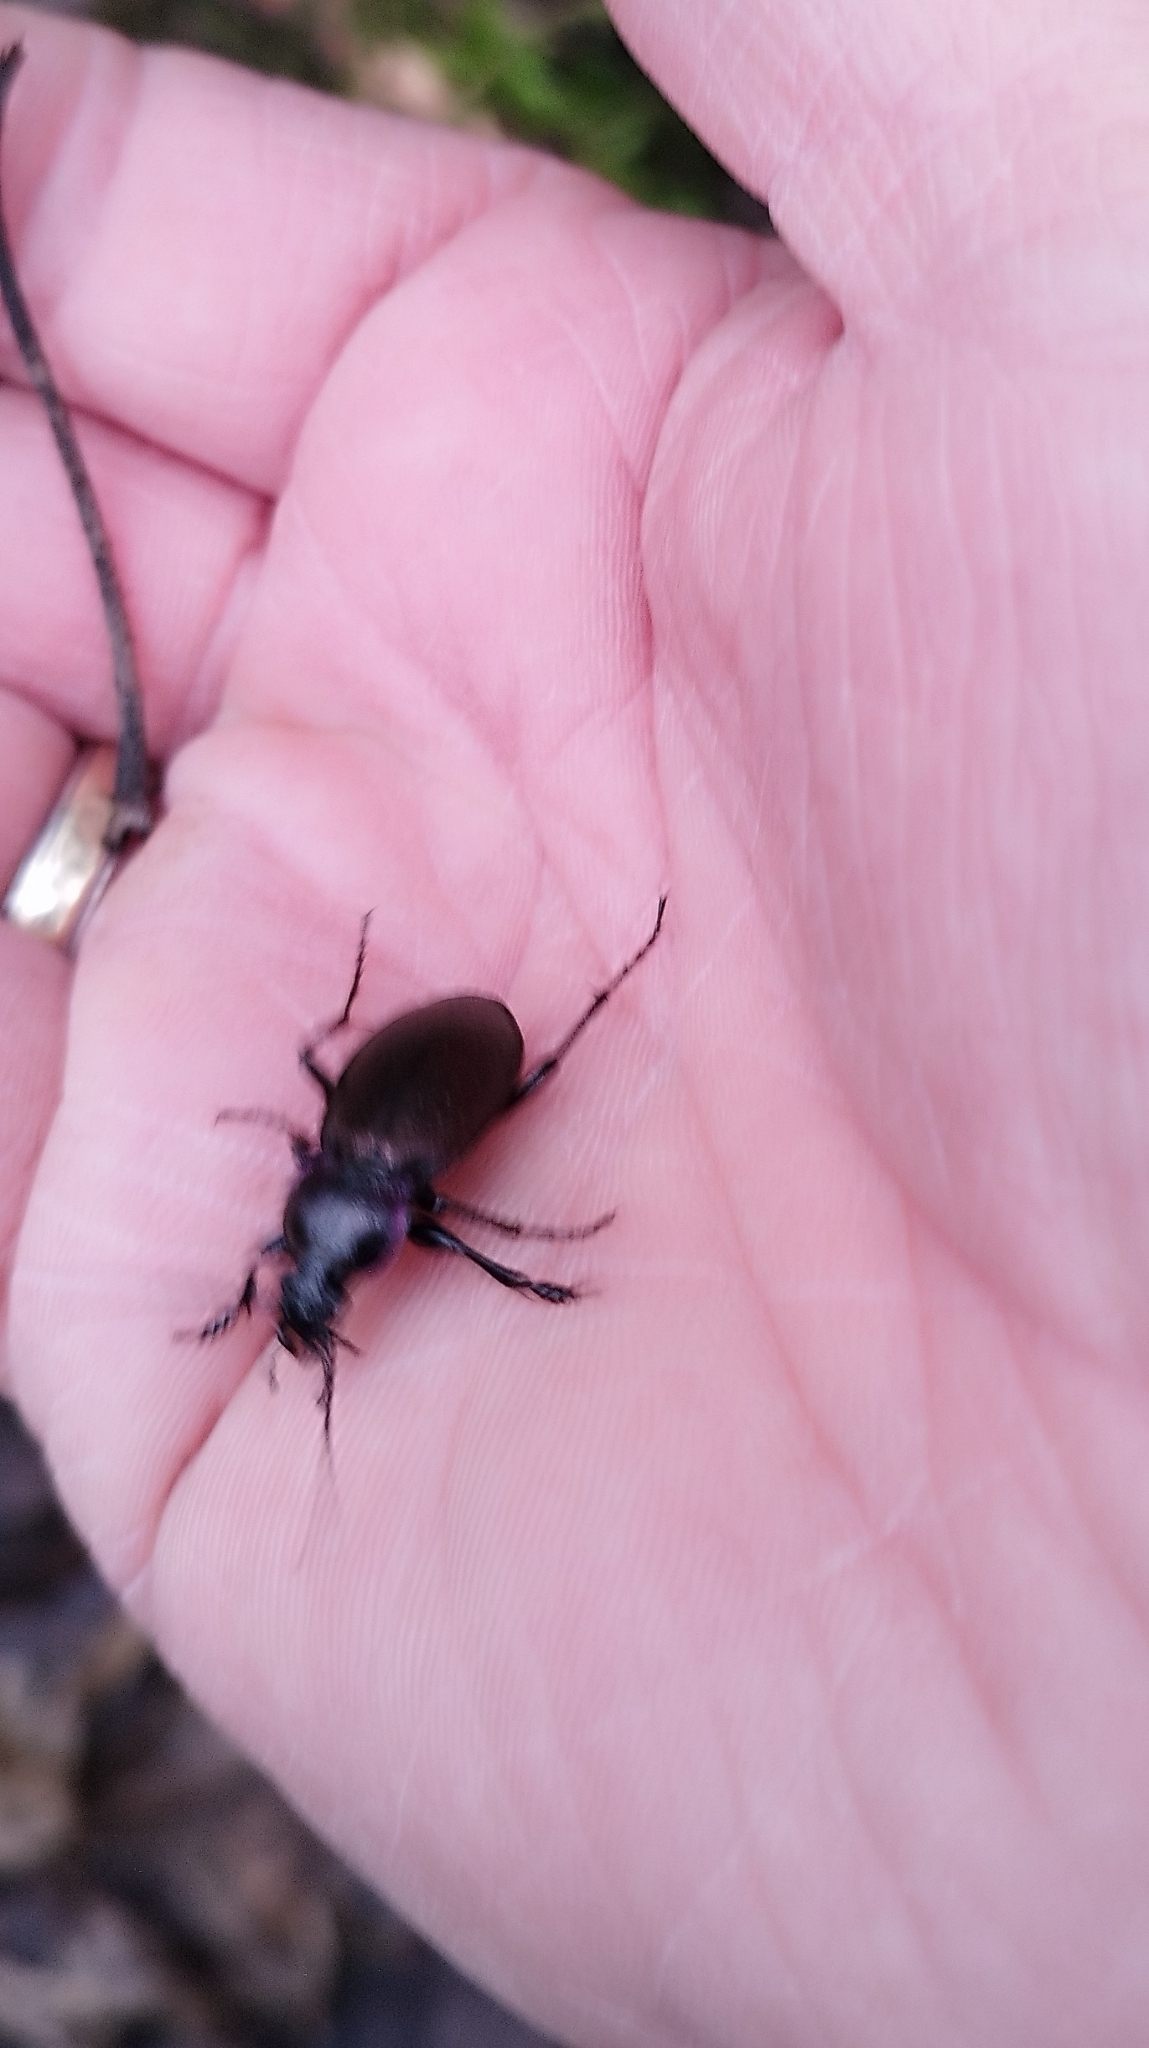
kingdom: Animalia
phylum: Arthropoda
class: Insecta
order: Coleoptera
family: Carabidae
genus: Carabus
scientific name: Carabus nemoralis
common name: European ground beetle
